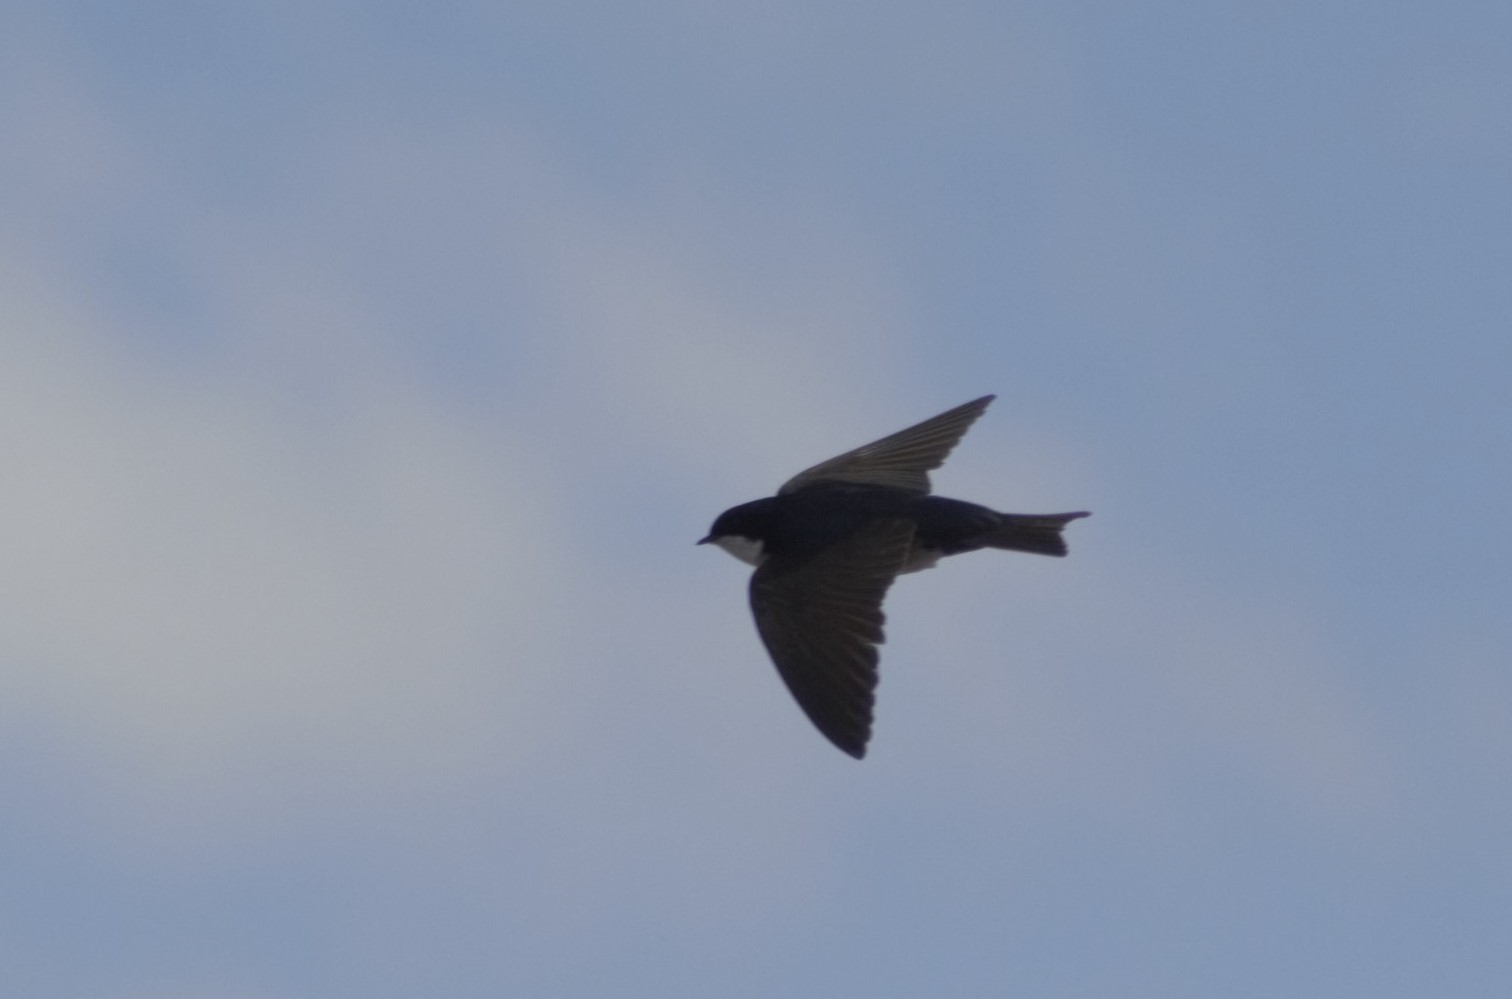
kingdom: Animalia
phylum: Chordata
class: Aves
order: Passeriformes
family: Hirundinidae
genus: Notiochelidon
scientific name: Notiochelidon cyanoleuca
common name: Blue-and-white swallow
